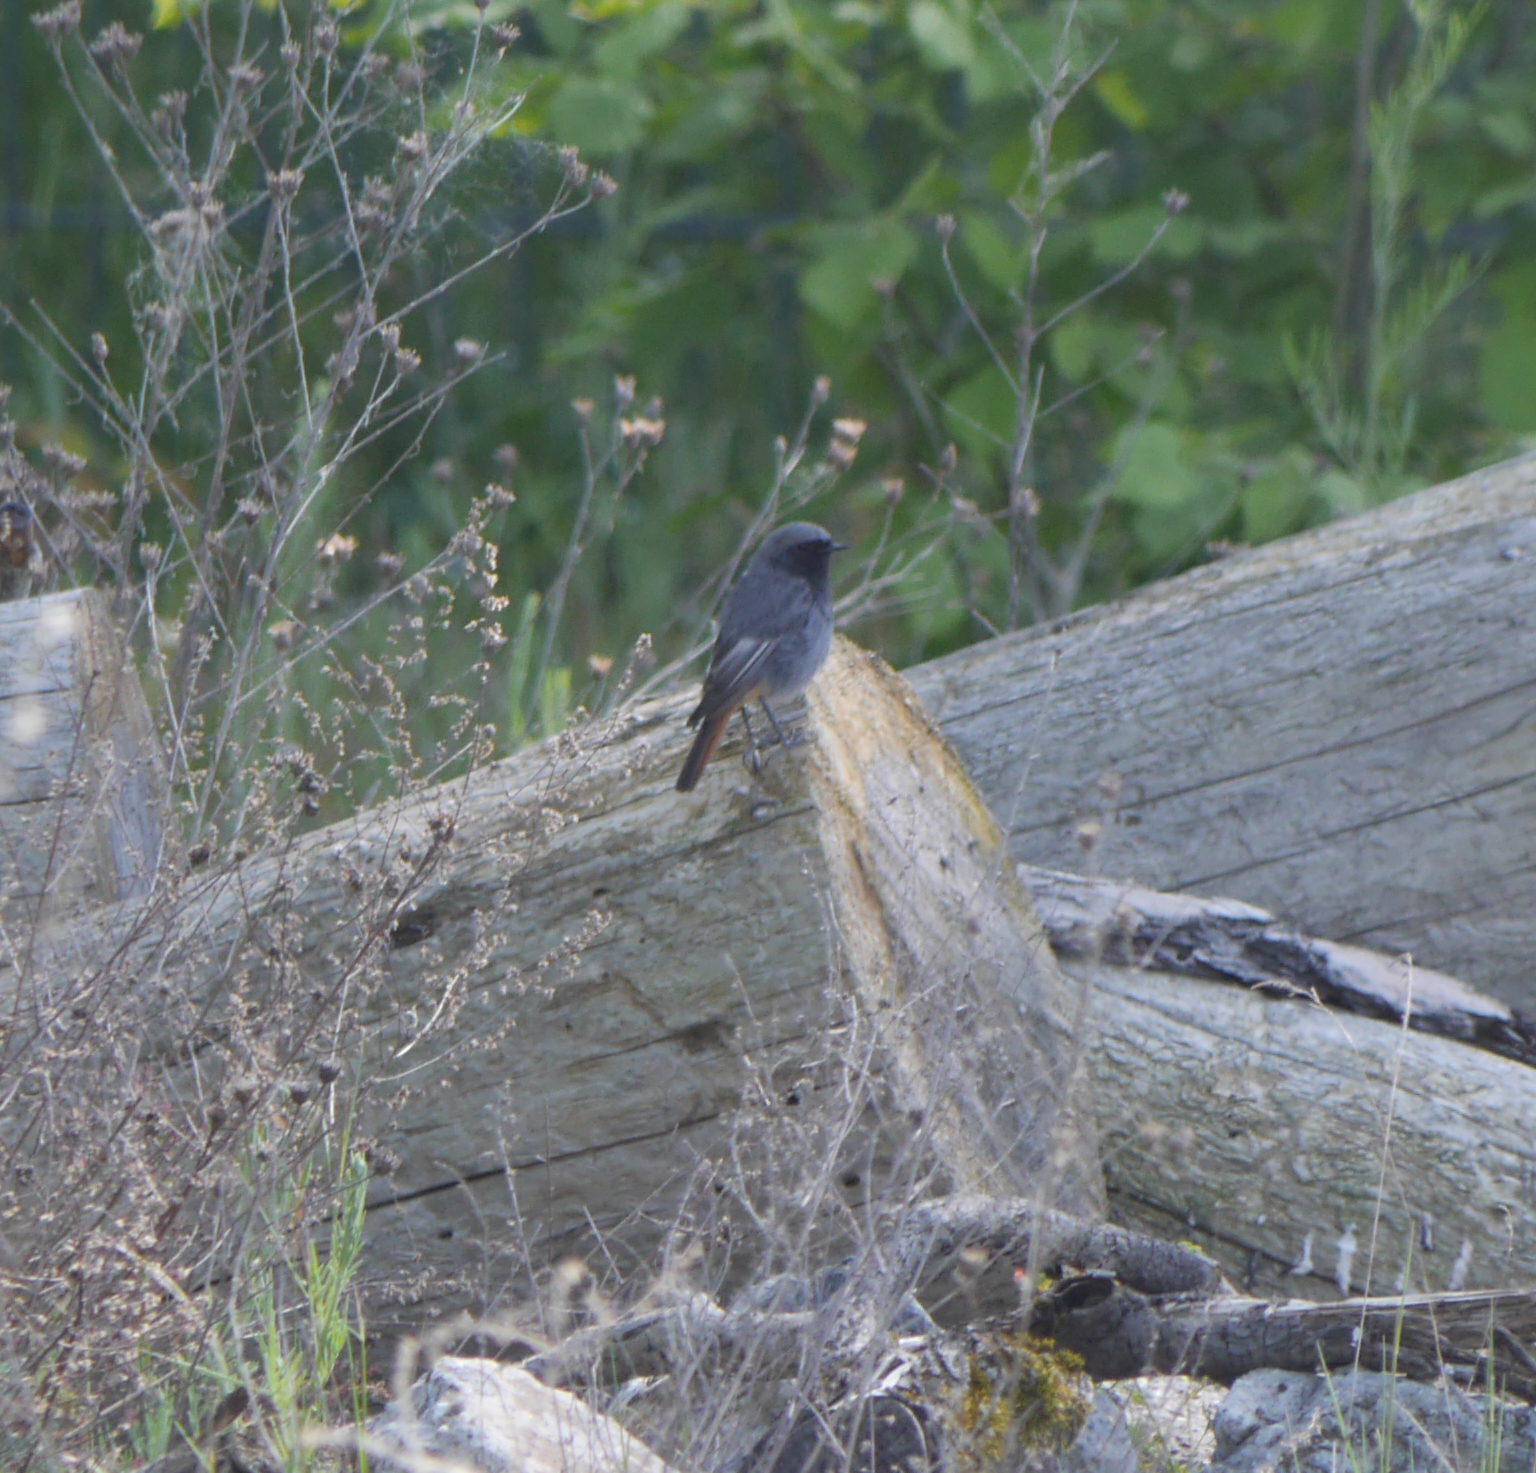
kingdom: Animalia
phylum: Chordata
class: Aves
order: Passeriformes
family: Muscicapidae
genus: Phoenicurus
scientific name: Phoenicurus ochruros
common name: Black redstart
